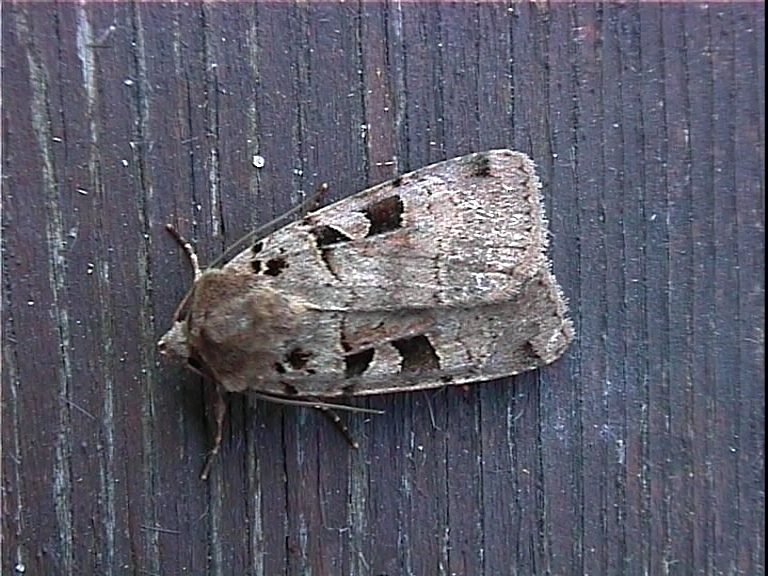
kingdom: Animalia
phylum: Arthropoda
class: Insecta
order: Lepidoptera
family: Noctuidae
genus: Xestia
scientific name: Xestia triangulum
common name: Double square-spot
